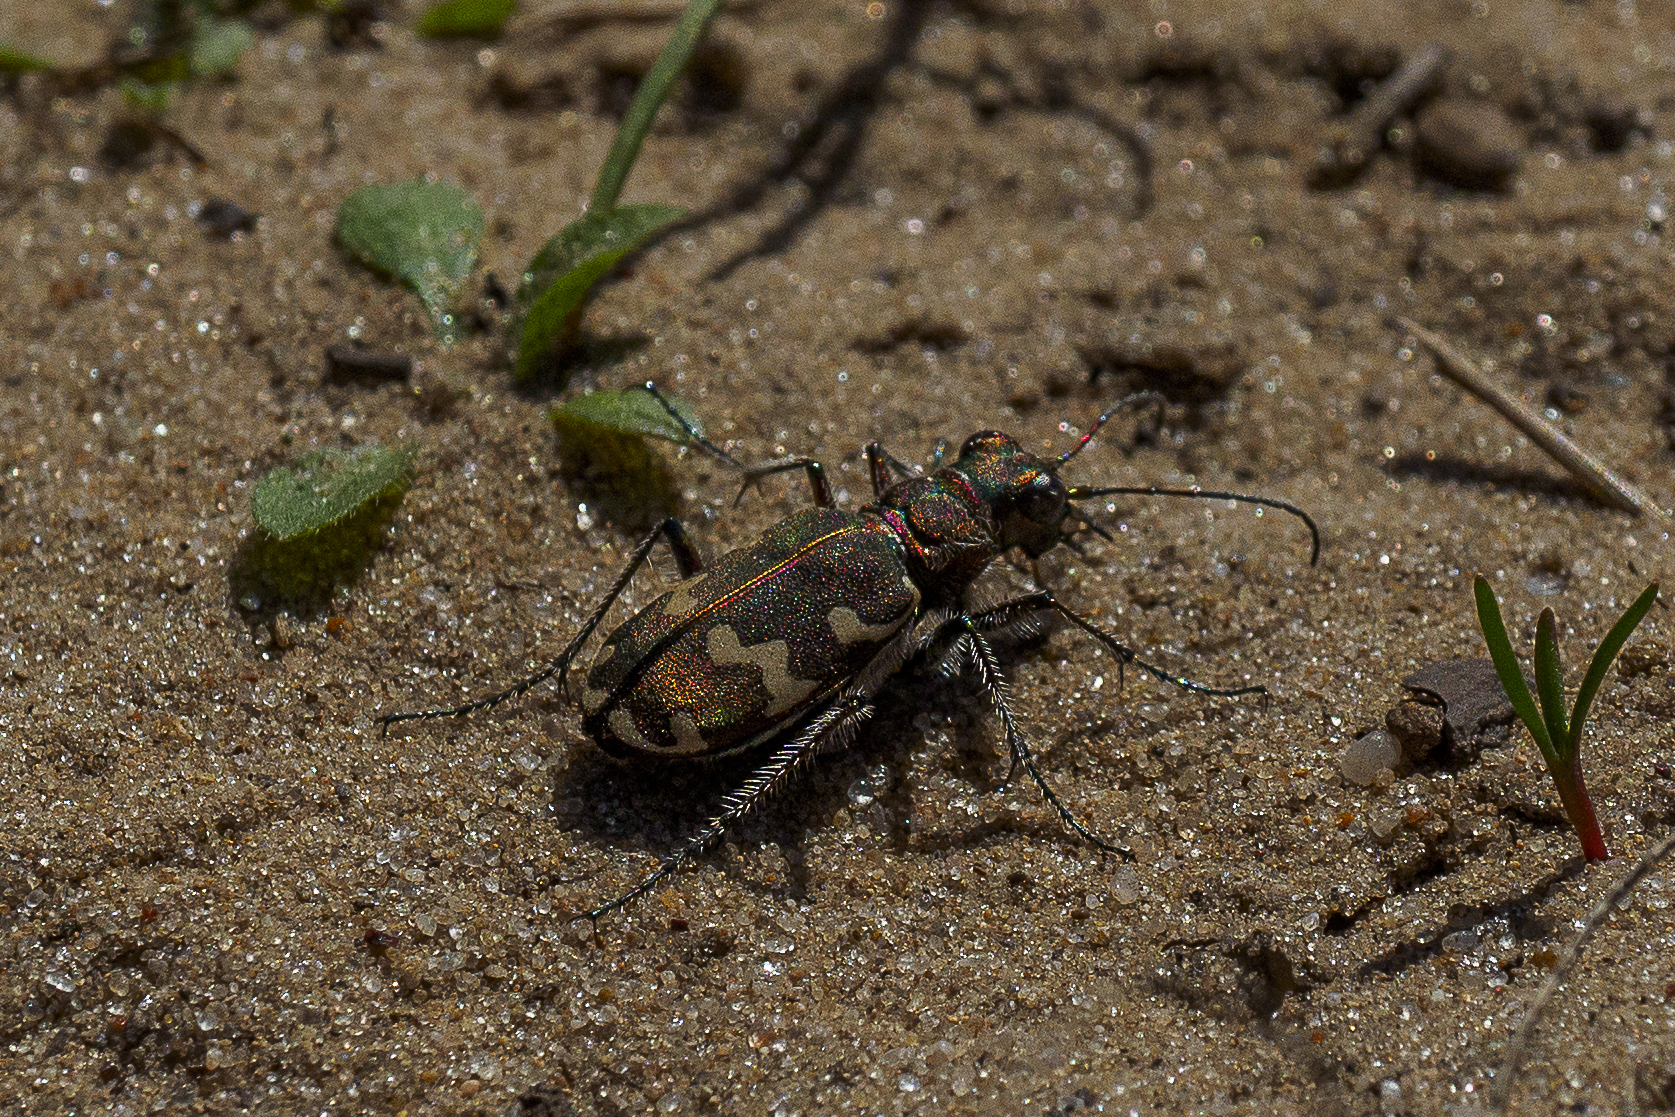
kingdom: Animalia
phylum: Arthropoda
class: Insecta
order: Coleoptera
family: Carabidae
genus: Cicindela
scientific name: Cicindela hybrida
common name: Northern dune tiger beetle
